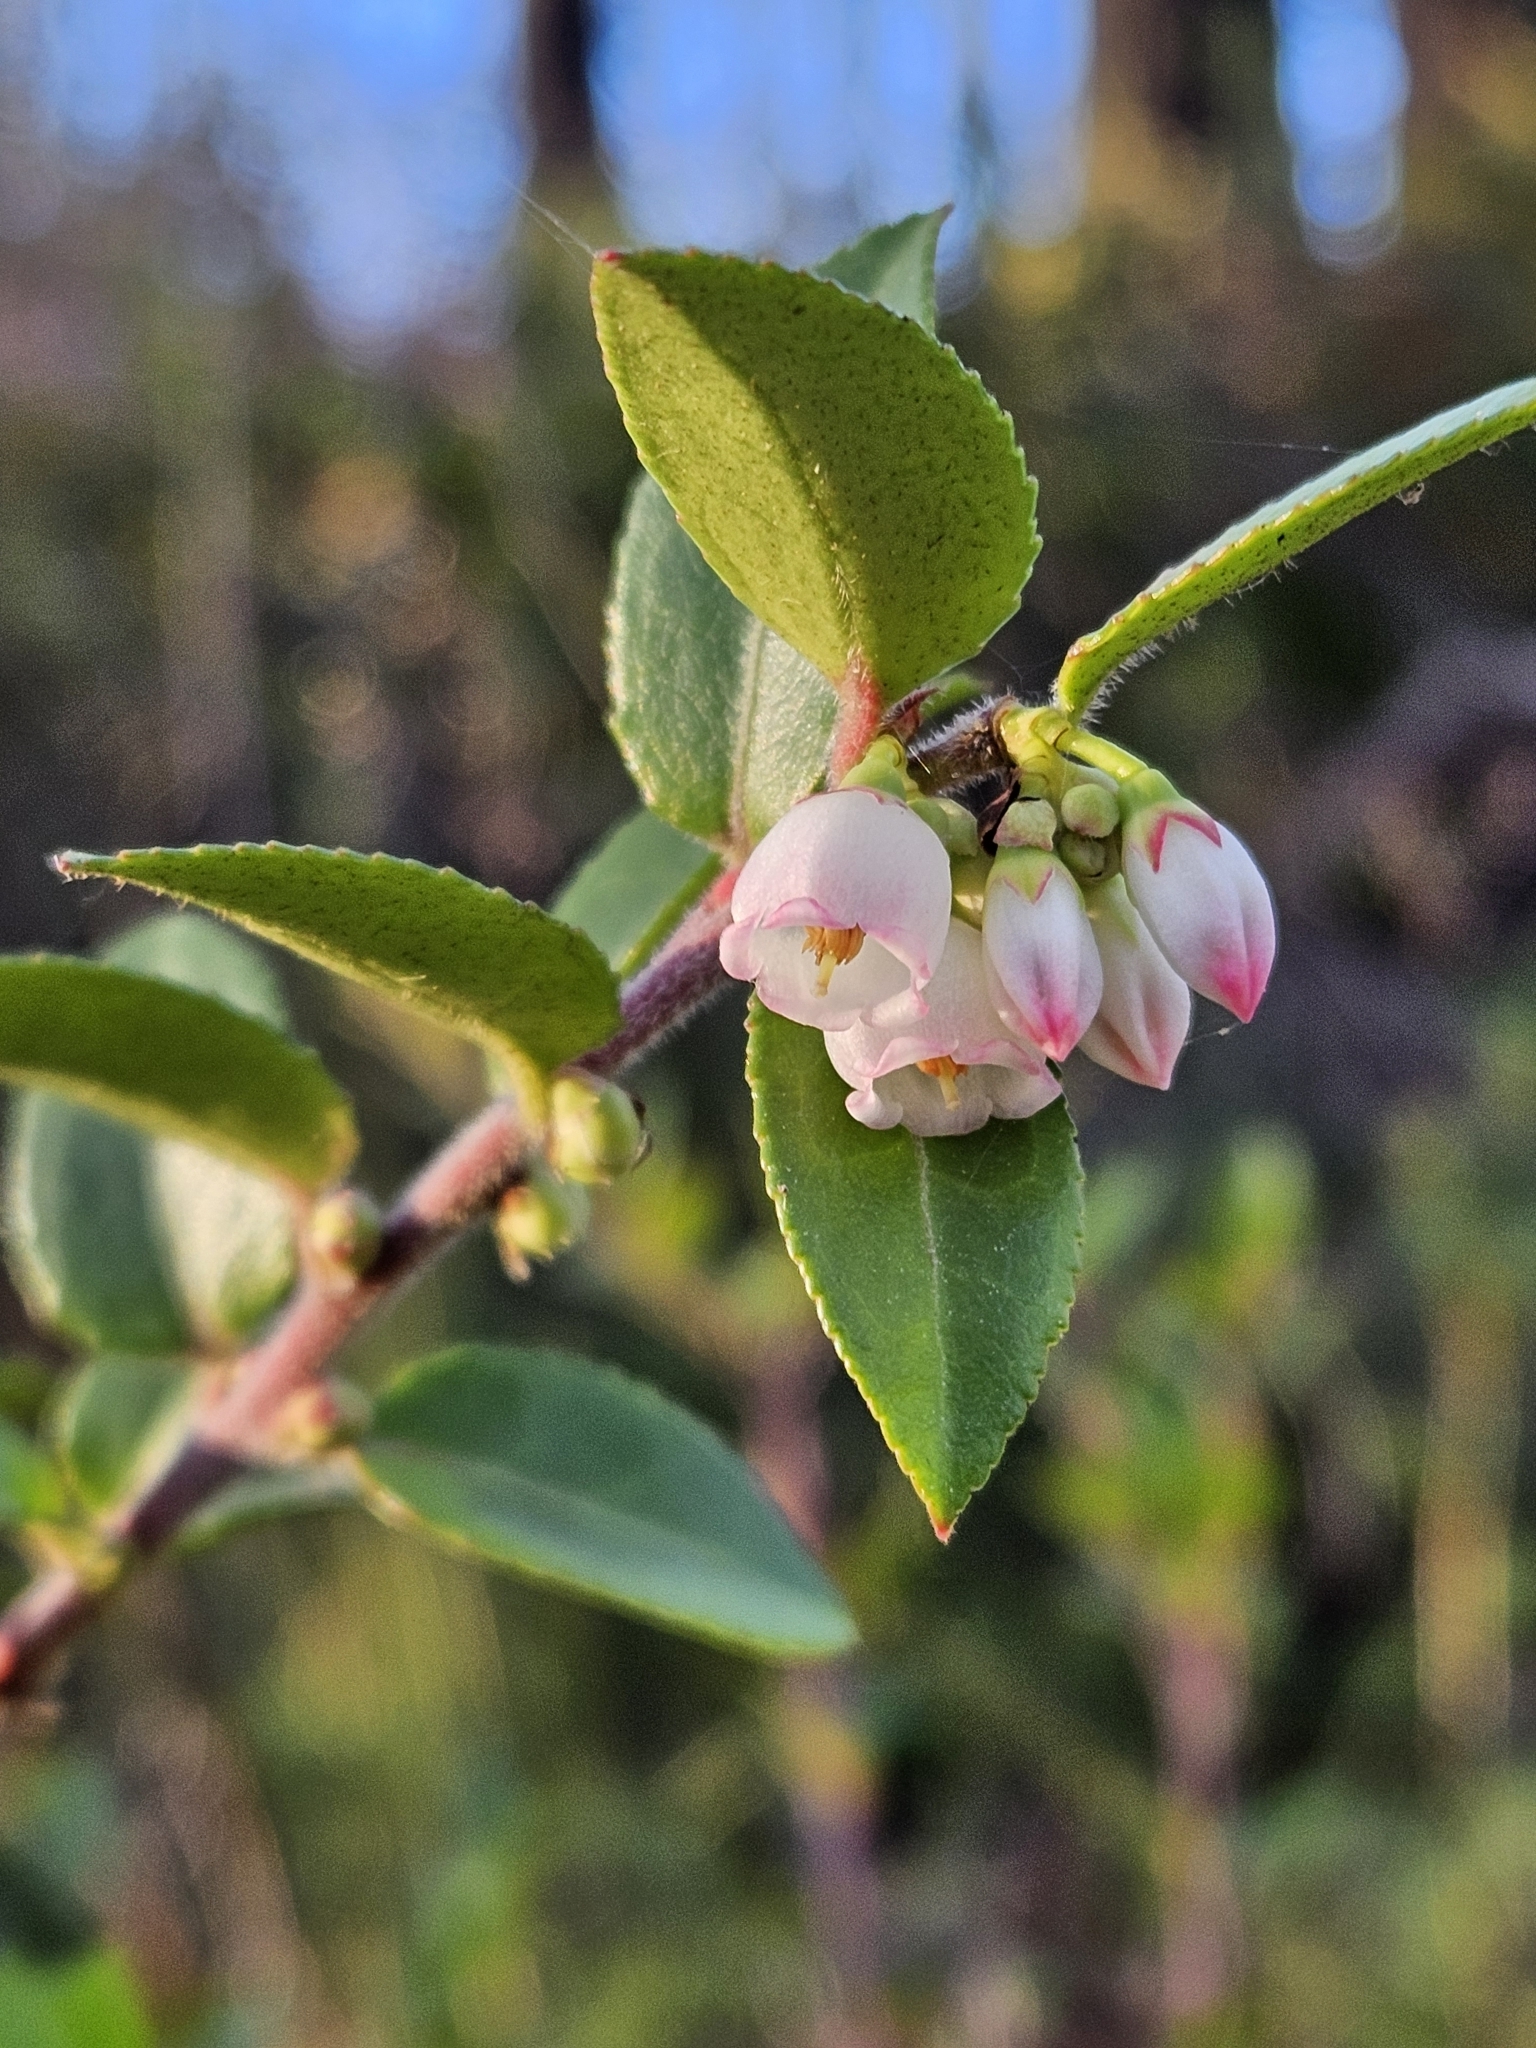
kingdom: Plantae
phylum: Tracheophyta
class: Magnoliopsida
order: Ericales
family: Ericaceae
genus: Vaccinium
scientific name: Vaccinium ovatum
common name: California-huckleberry
